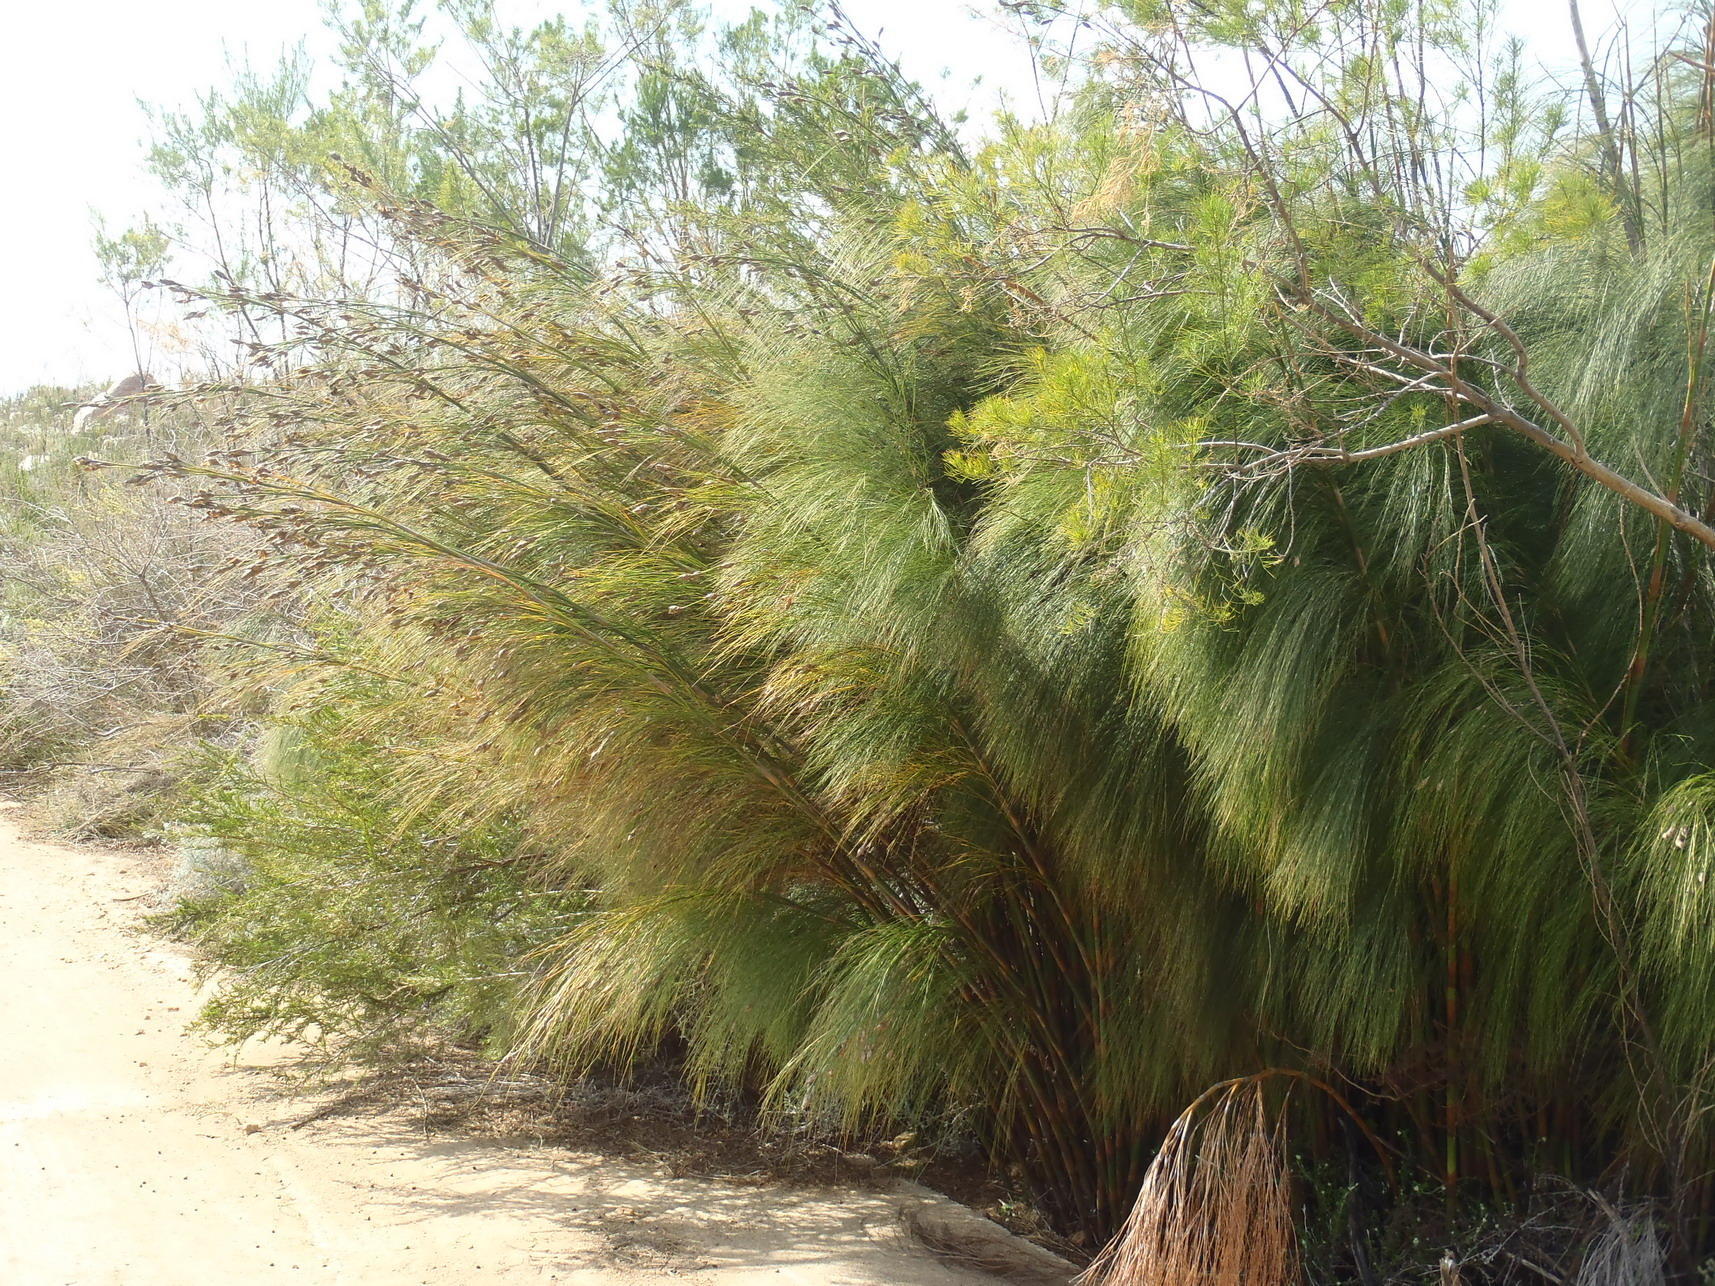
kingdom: Plantae
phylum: Tracheophyta
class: Liliopsida
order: Poales
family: Restionaceae
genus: Cannomois
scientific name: Cannomois grandis
